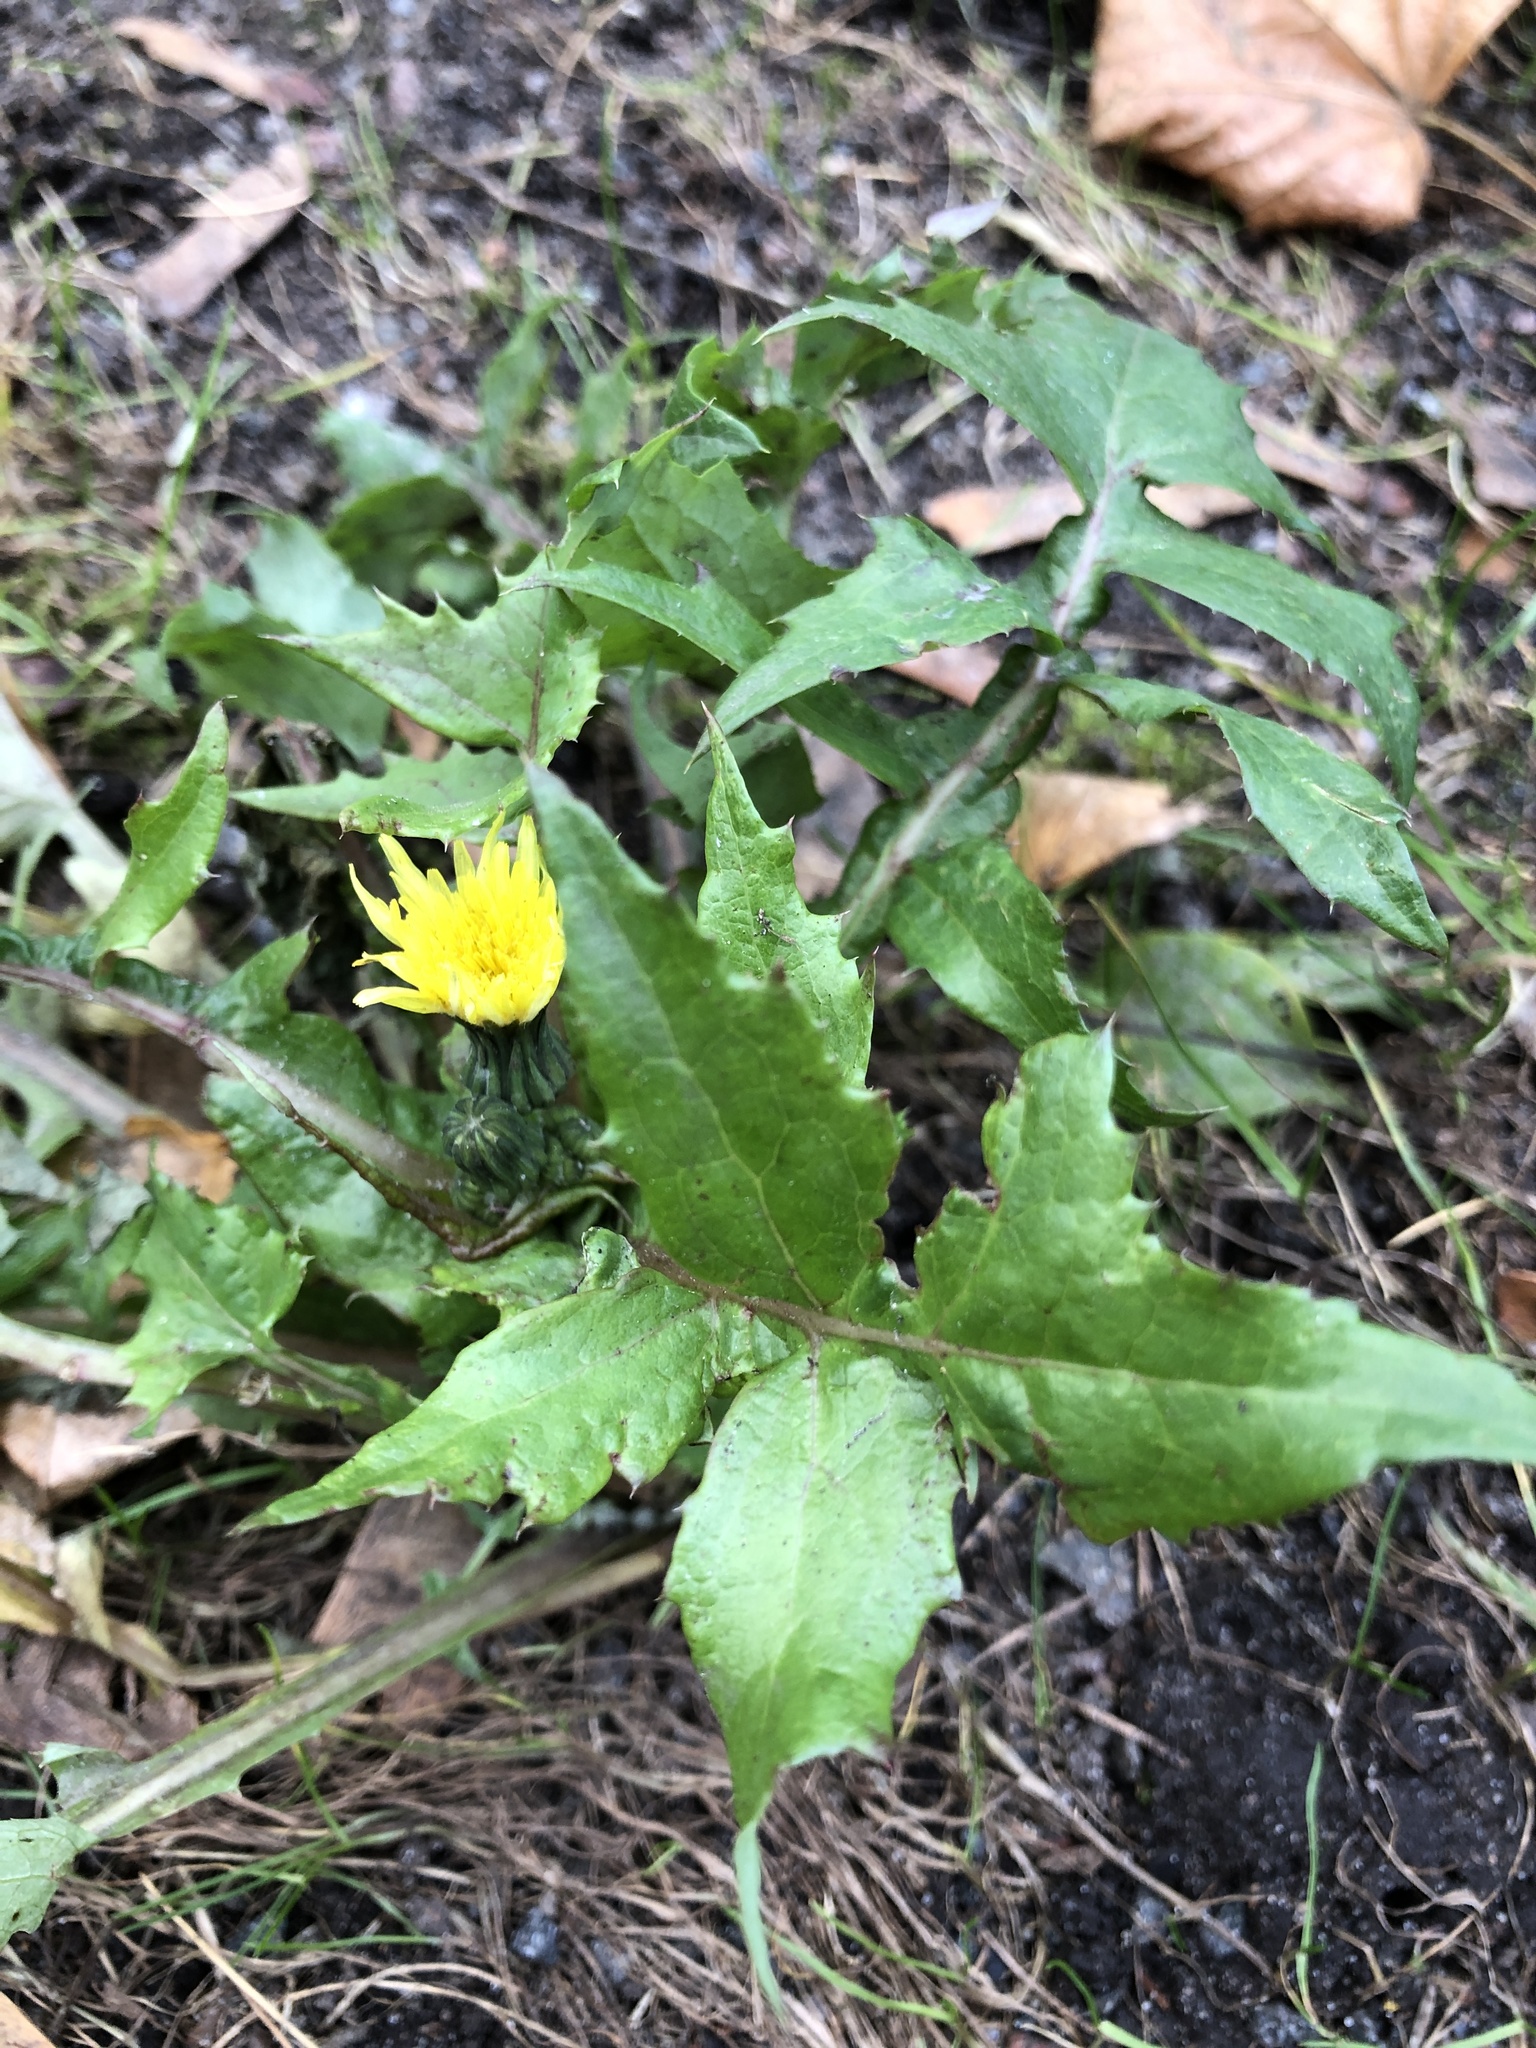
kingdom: Plantae
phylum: Tracheophyta
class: Magnoliopsida
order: Asterales
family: Asteraceae
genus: Sonchus
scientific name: Sonchus oleraceus
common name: Common sowthistle
